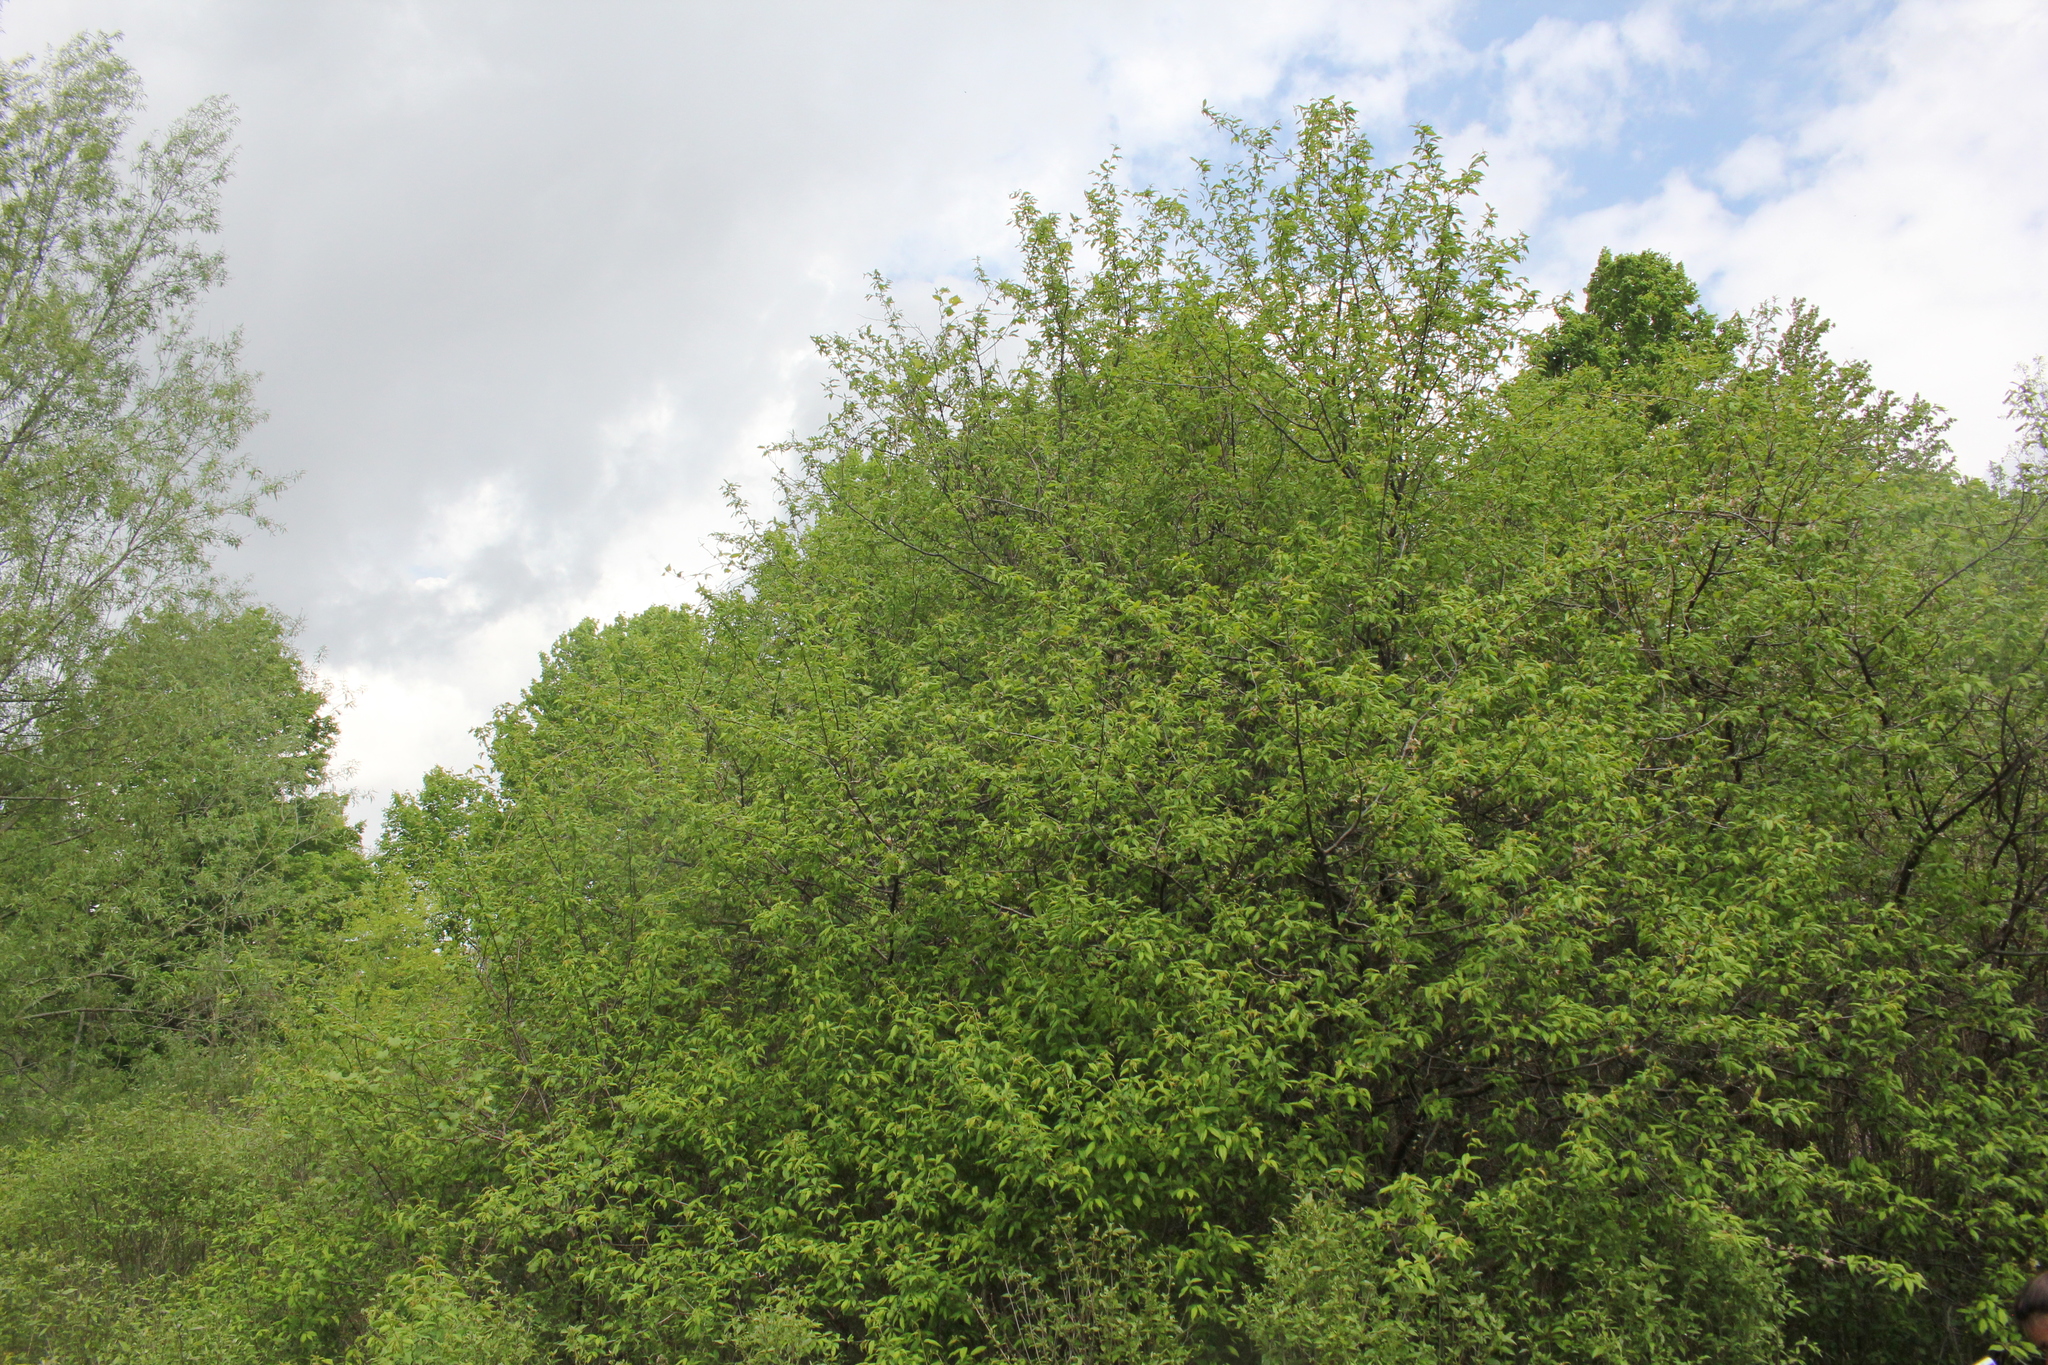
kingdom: Plantae
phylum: Tracheophyta
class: Magnoliopsida
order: Rosales
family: Rosaceae
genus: Prunus
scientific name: Prunus americana
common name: American plum
